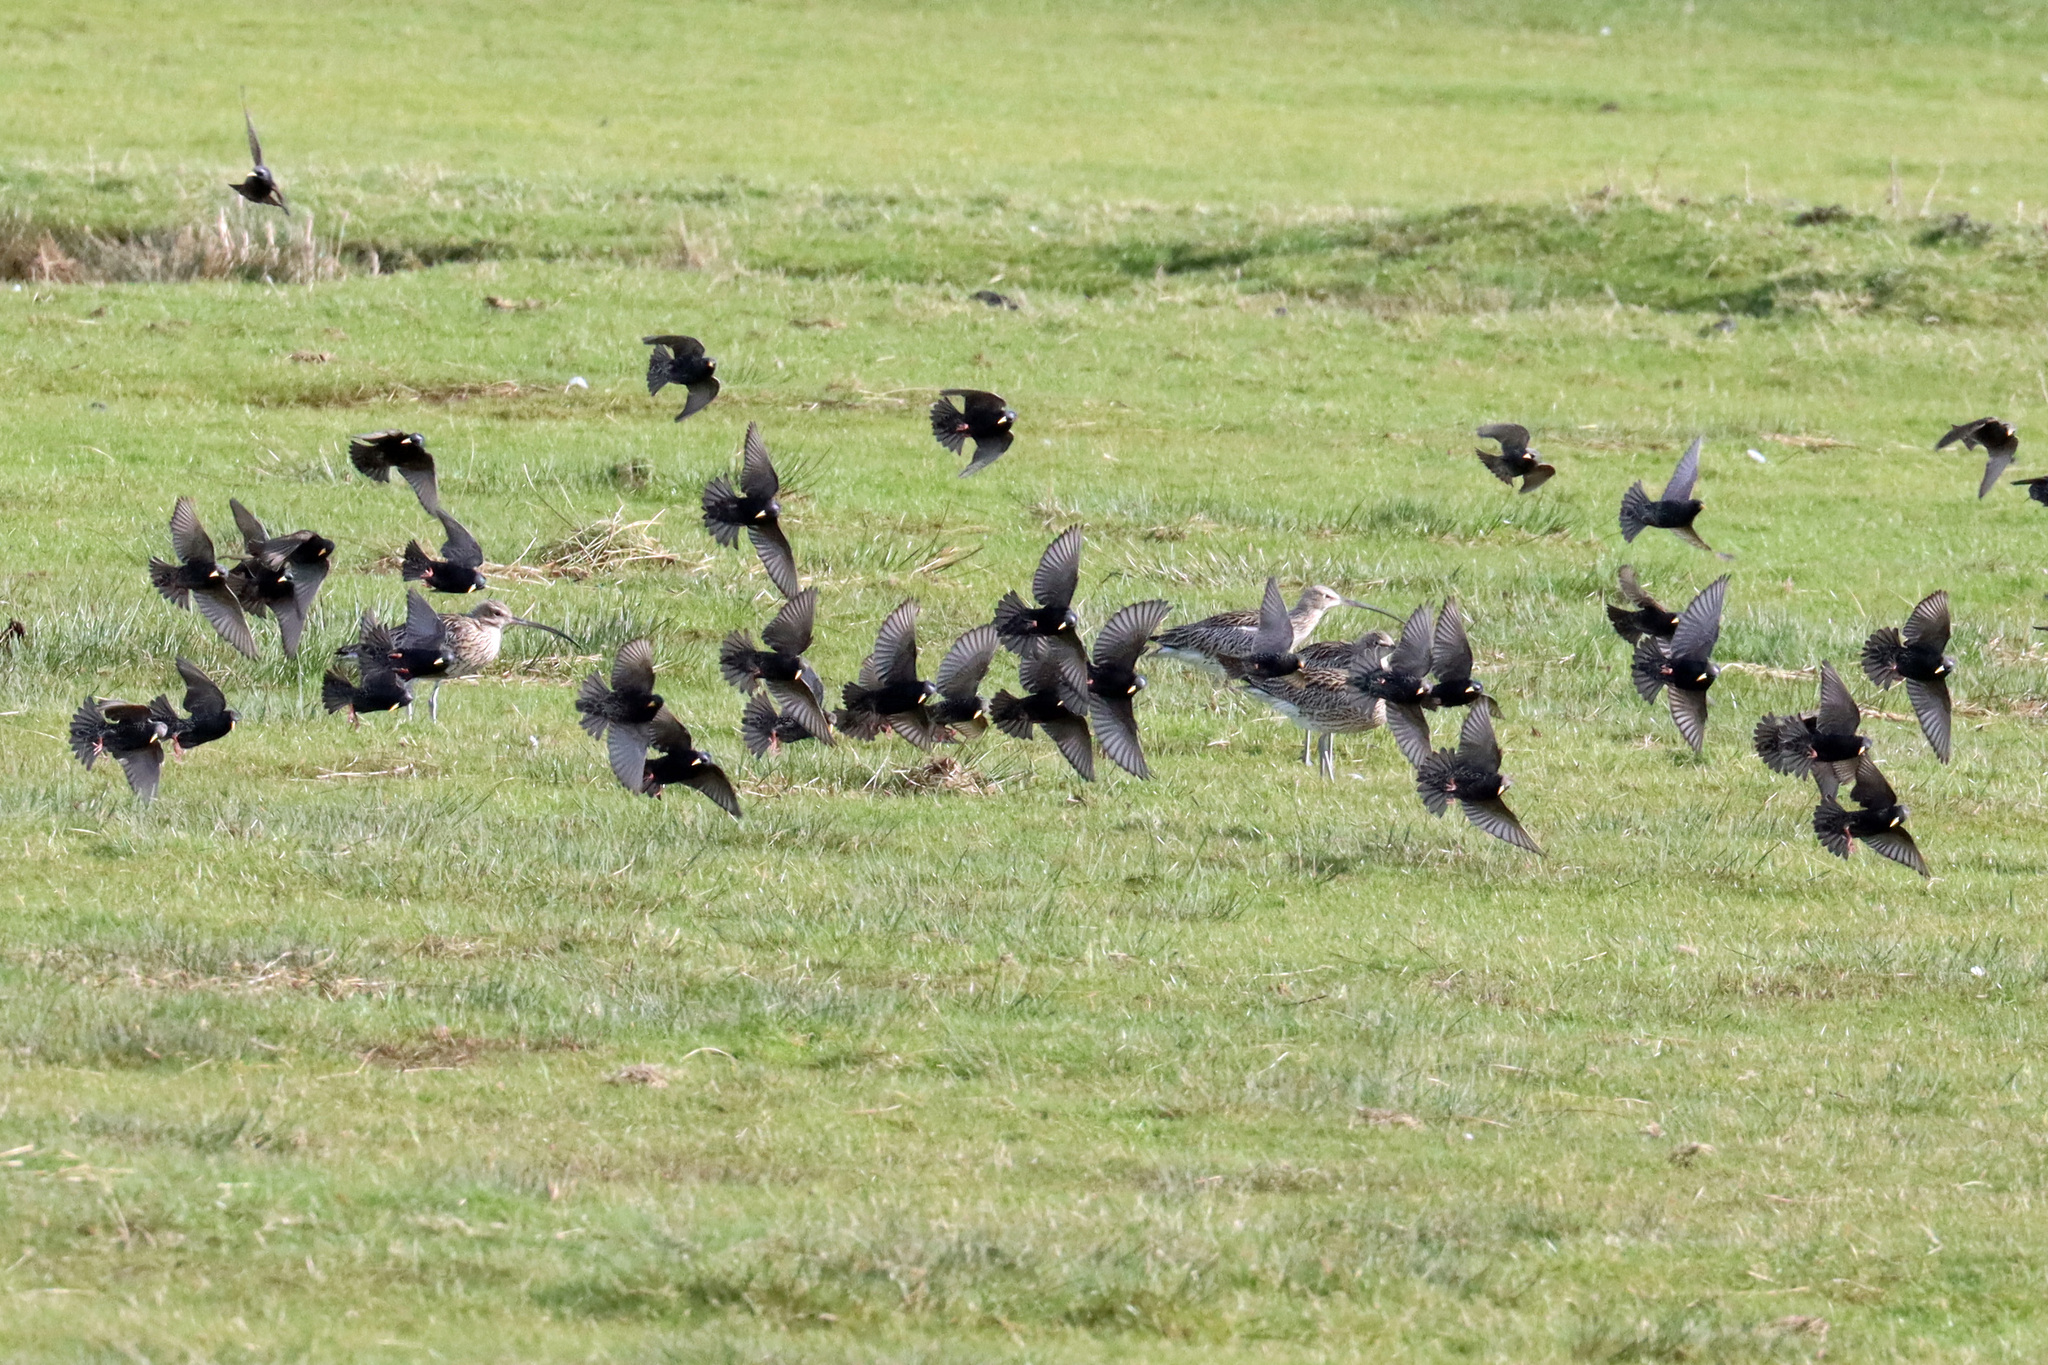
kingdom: Animalia
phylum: Chordata
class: Aves
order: Passeriformes
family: Sturnidae
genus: Sturnus
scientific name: Sturnus vulgaris
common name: Common starling
